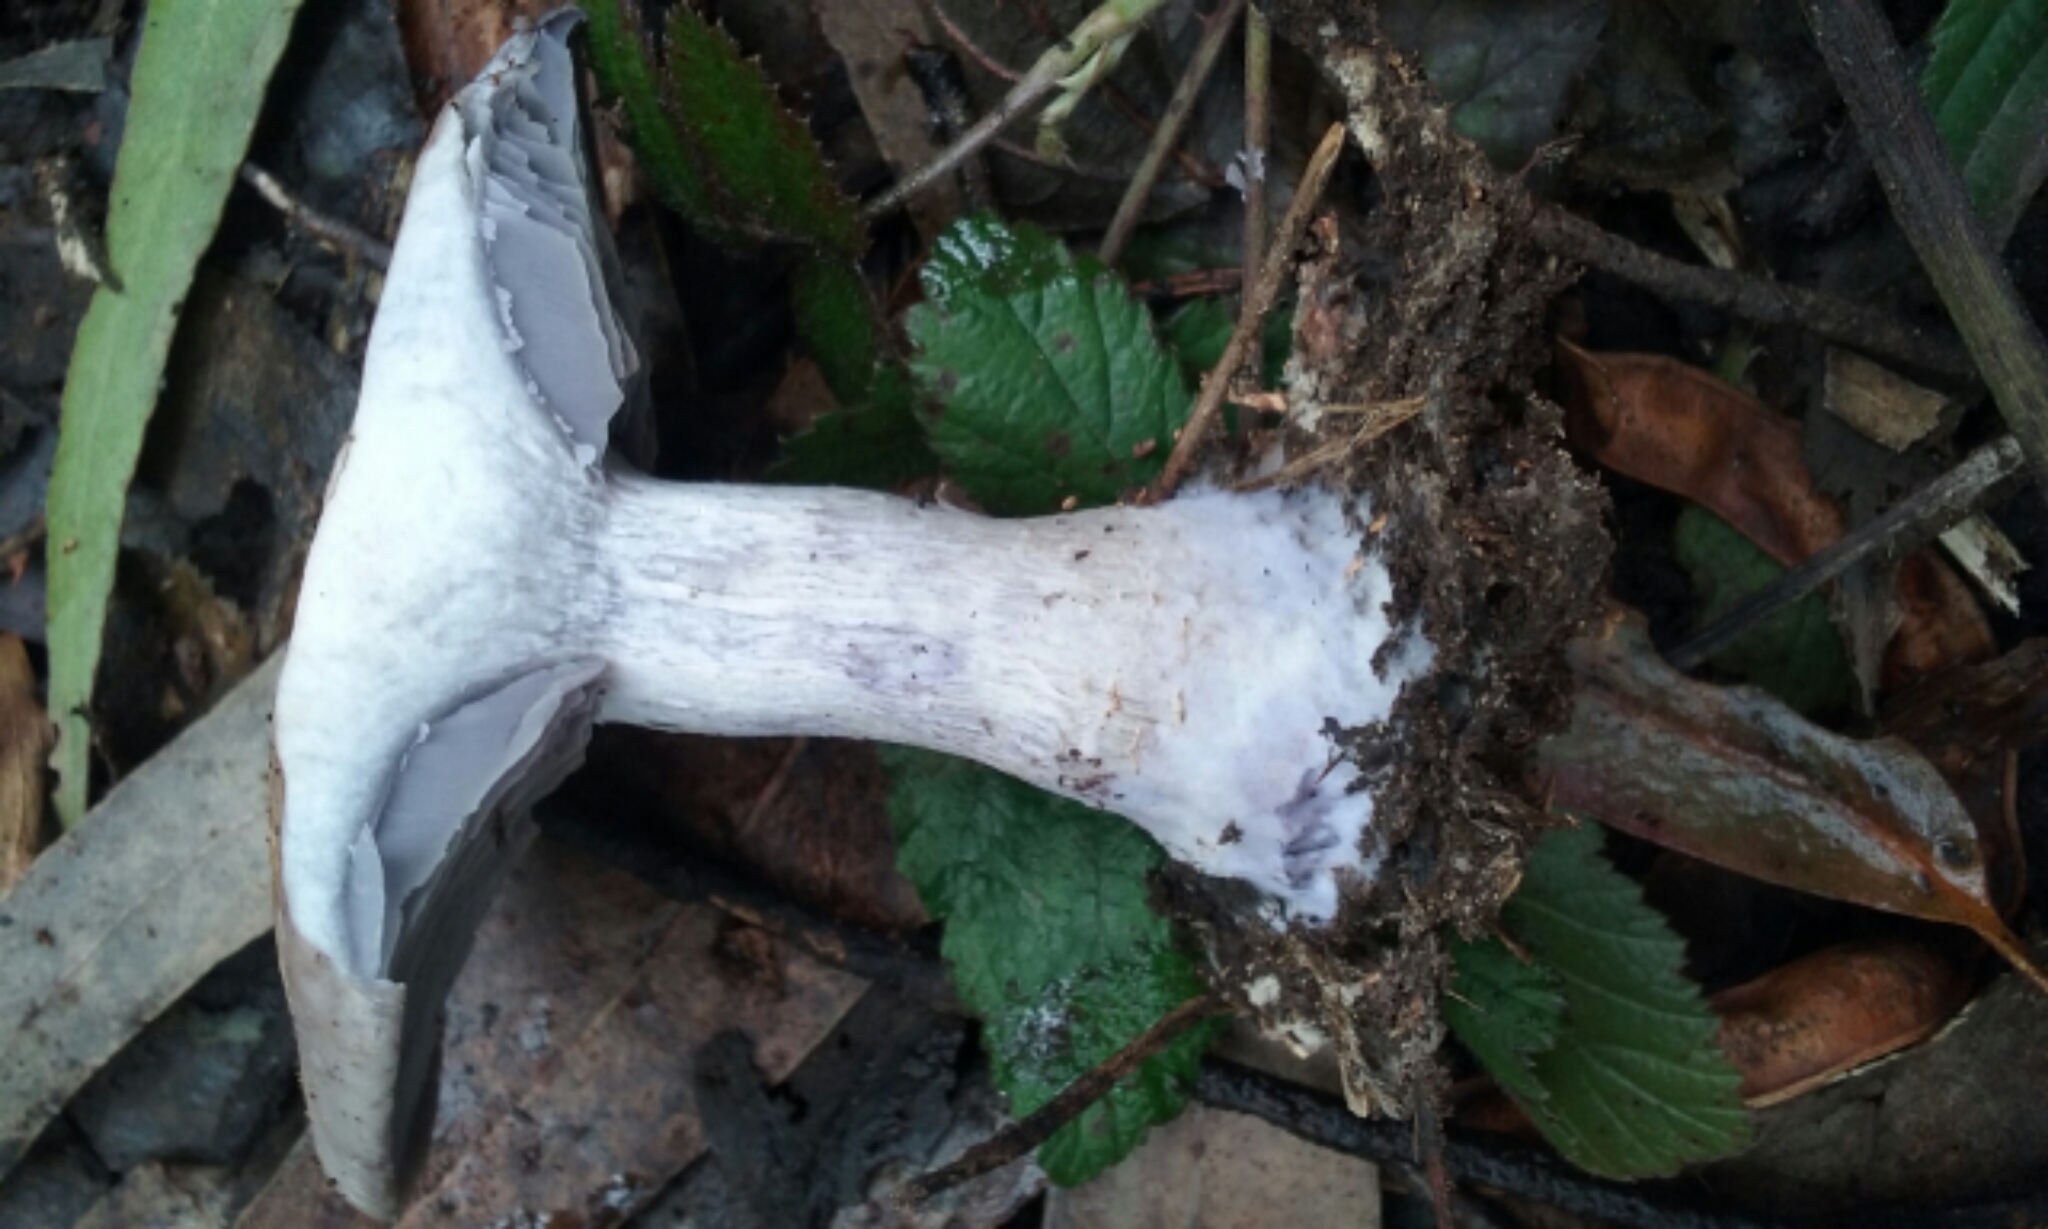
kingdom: Fungi
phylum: Basidiomycota
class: Agaricomycetes
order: Agaricales
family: Tricholomataceae
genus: Collybia
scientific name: Collybia
